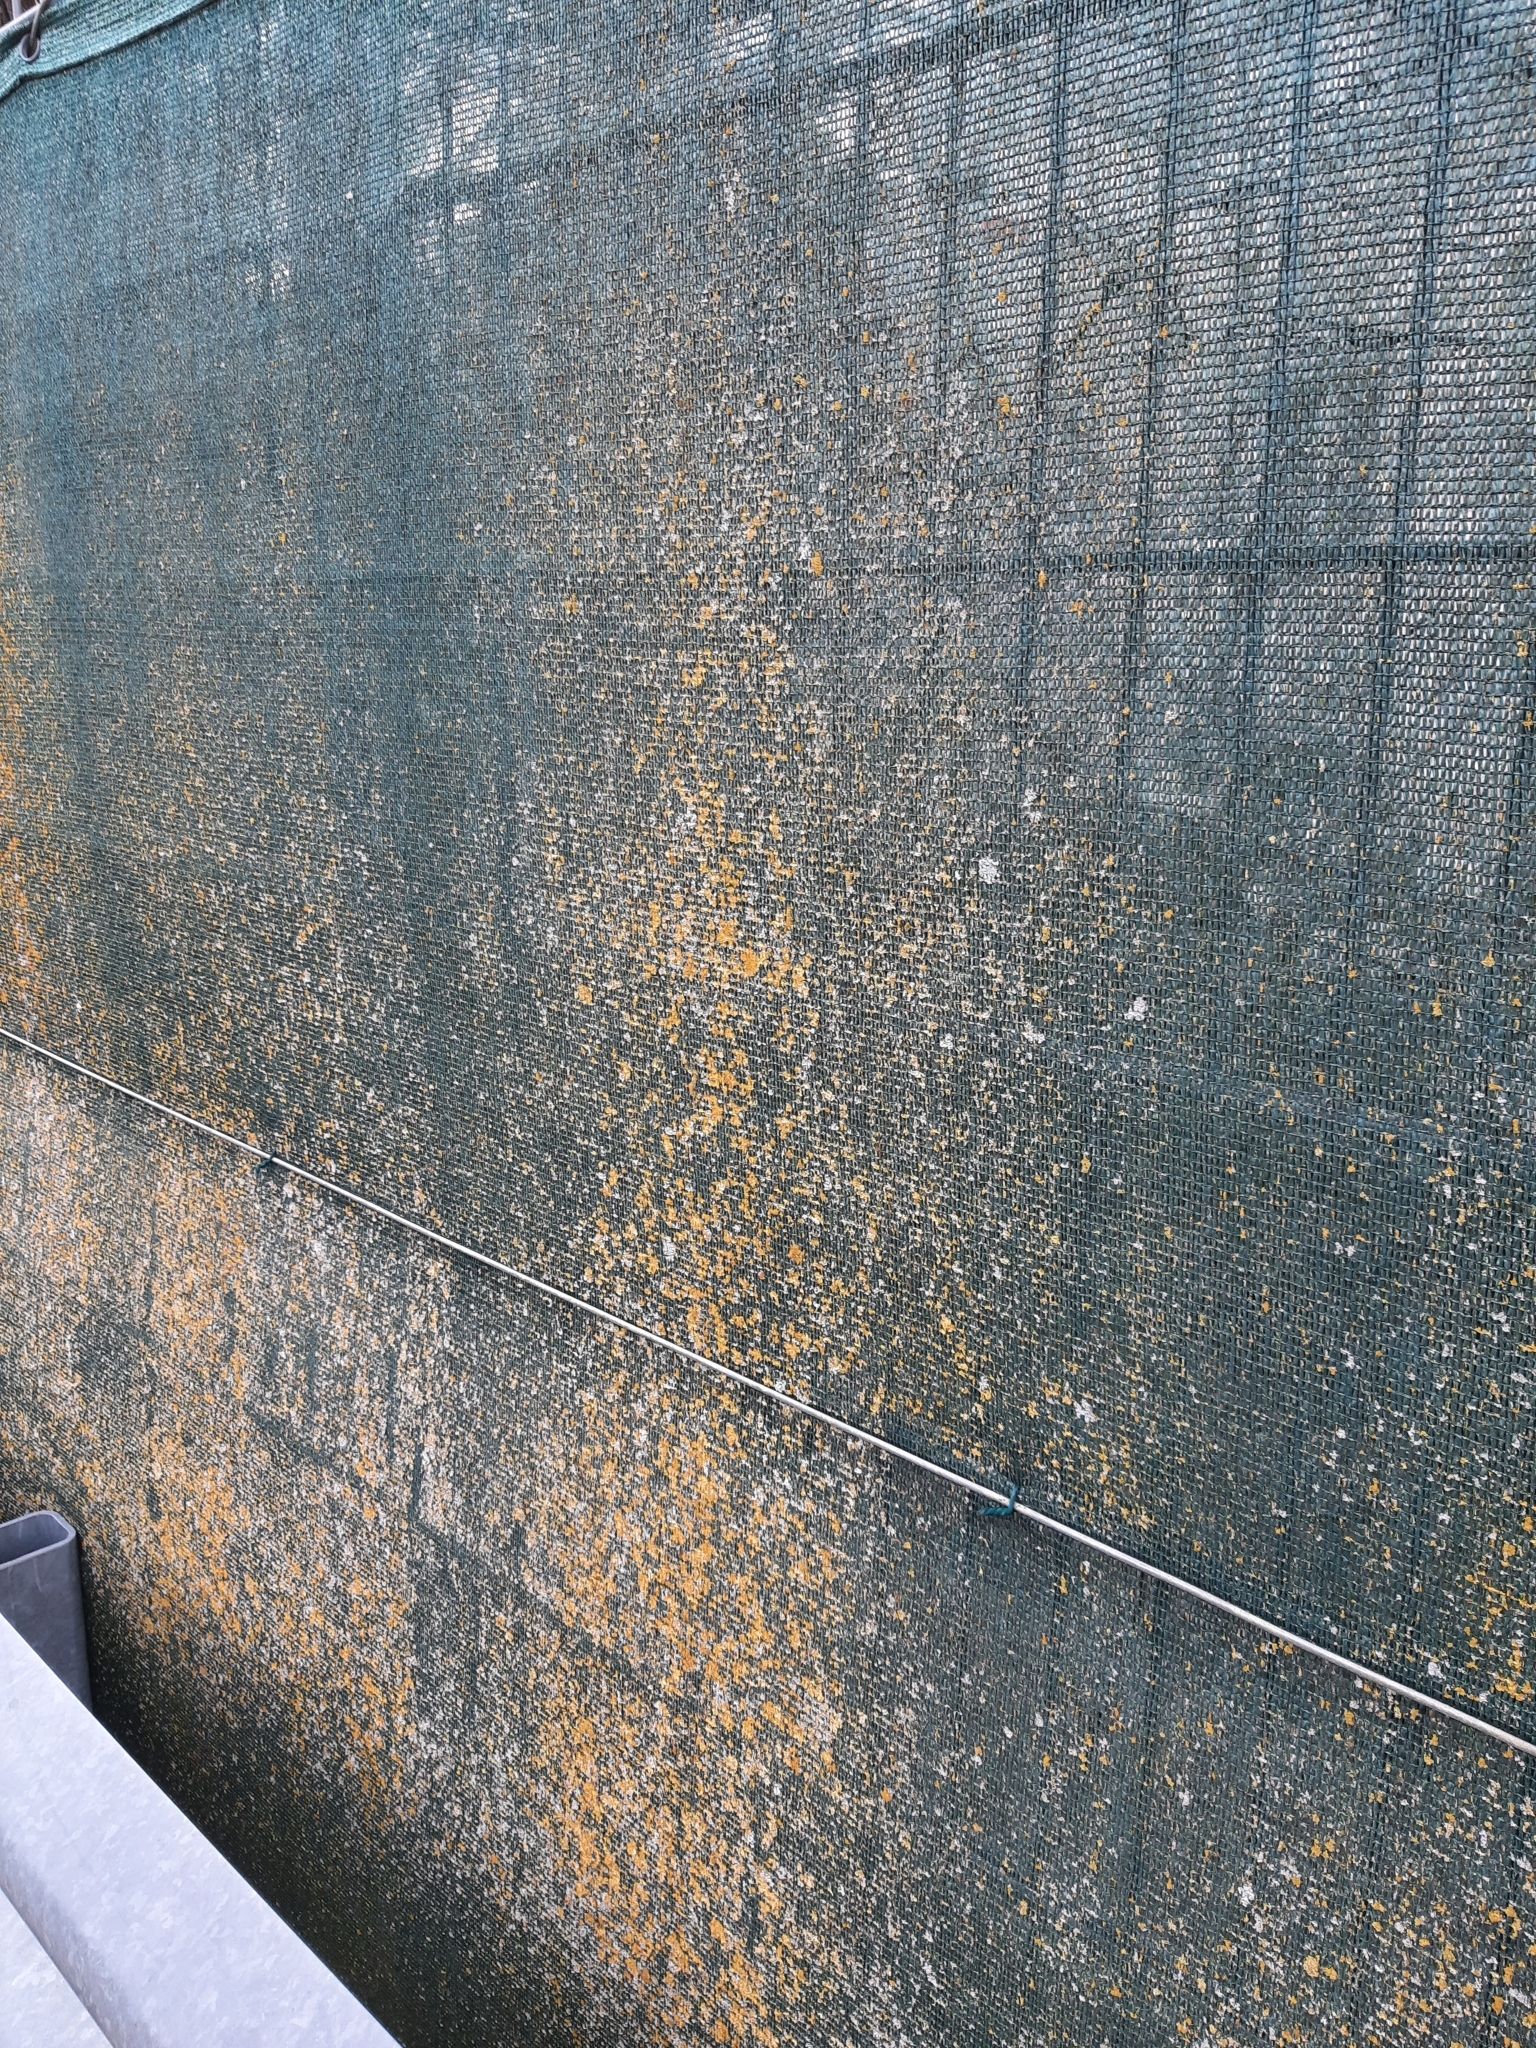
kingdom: Fungi
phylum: Ascomycota
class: Lecanoromycetes
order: Teloschistales
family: Teloschistaceae
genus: Xanthoria
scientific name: Xanthoria parietina
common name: Common orange lichen
